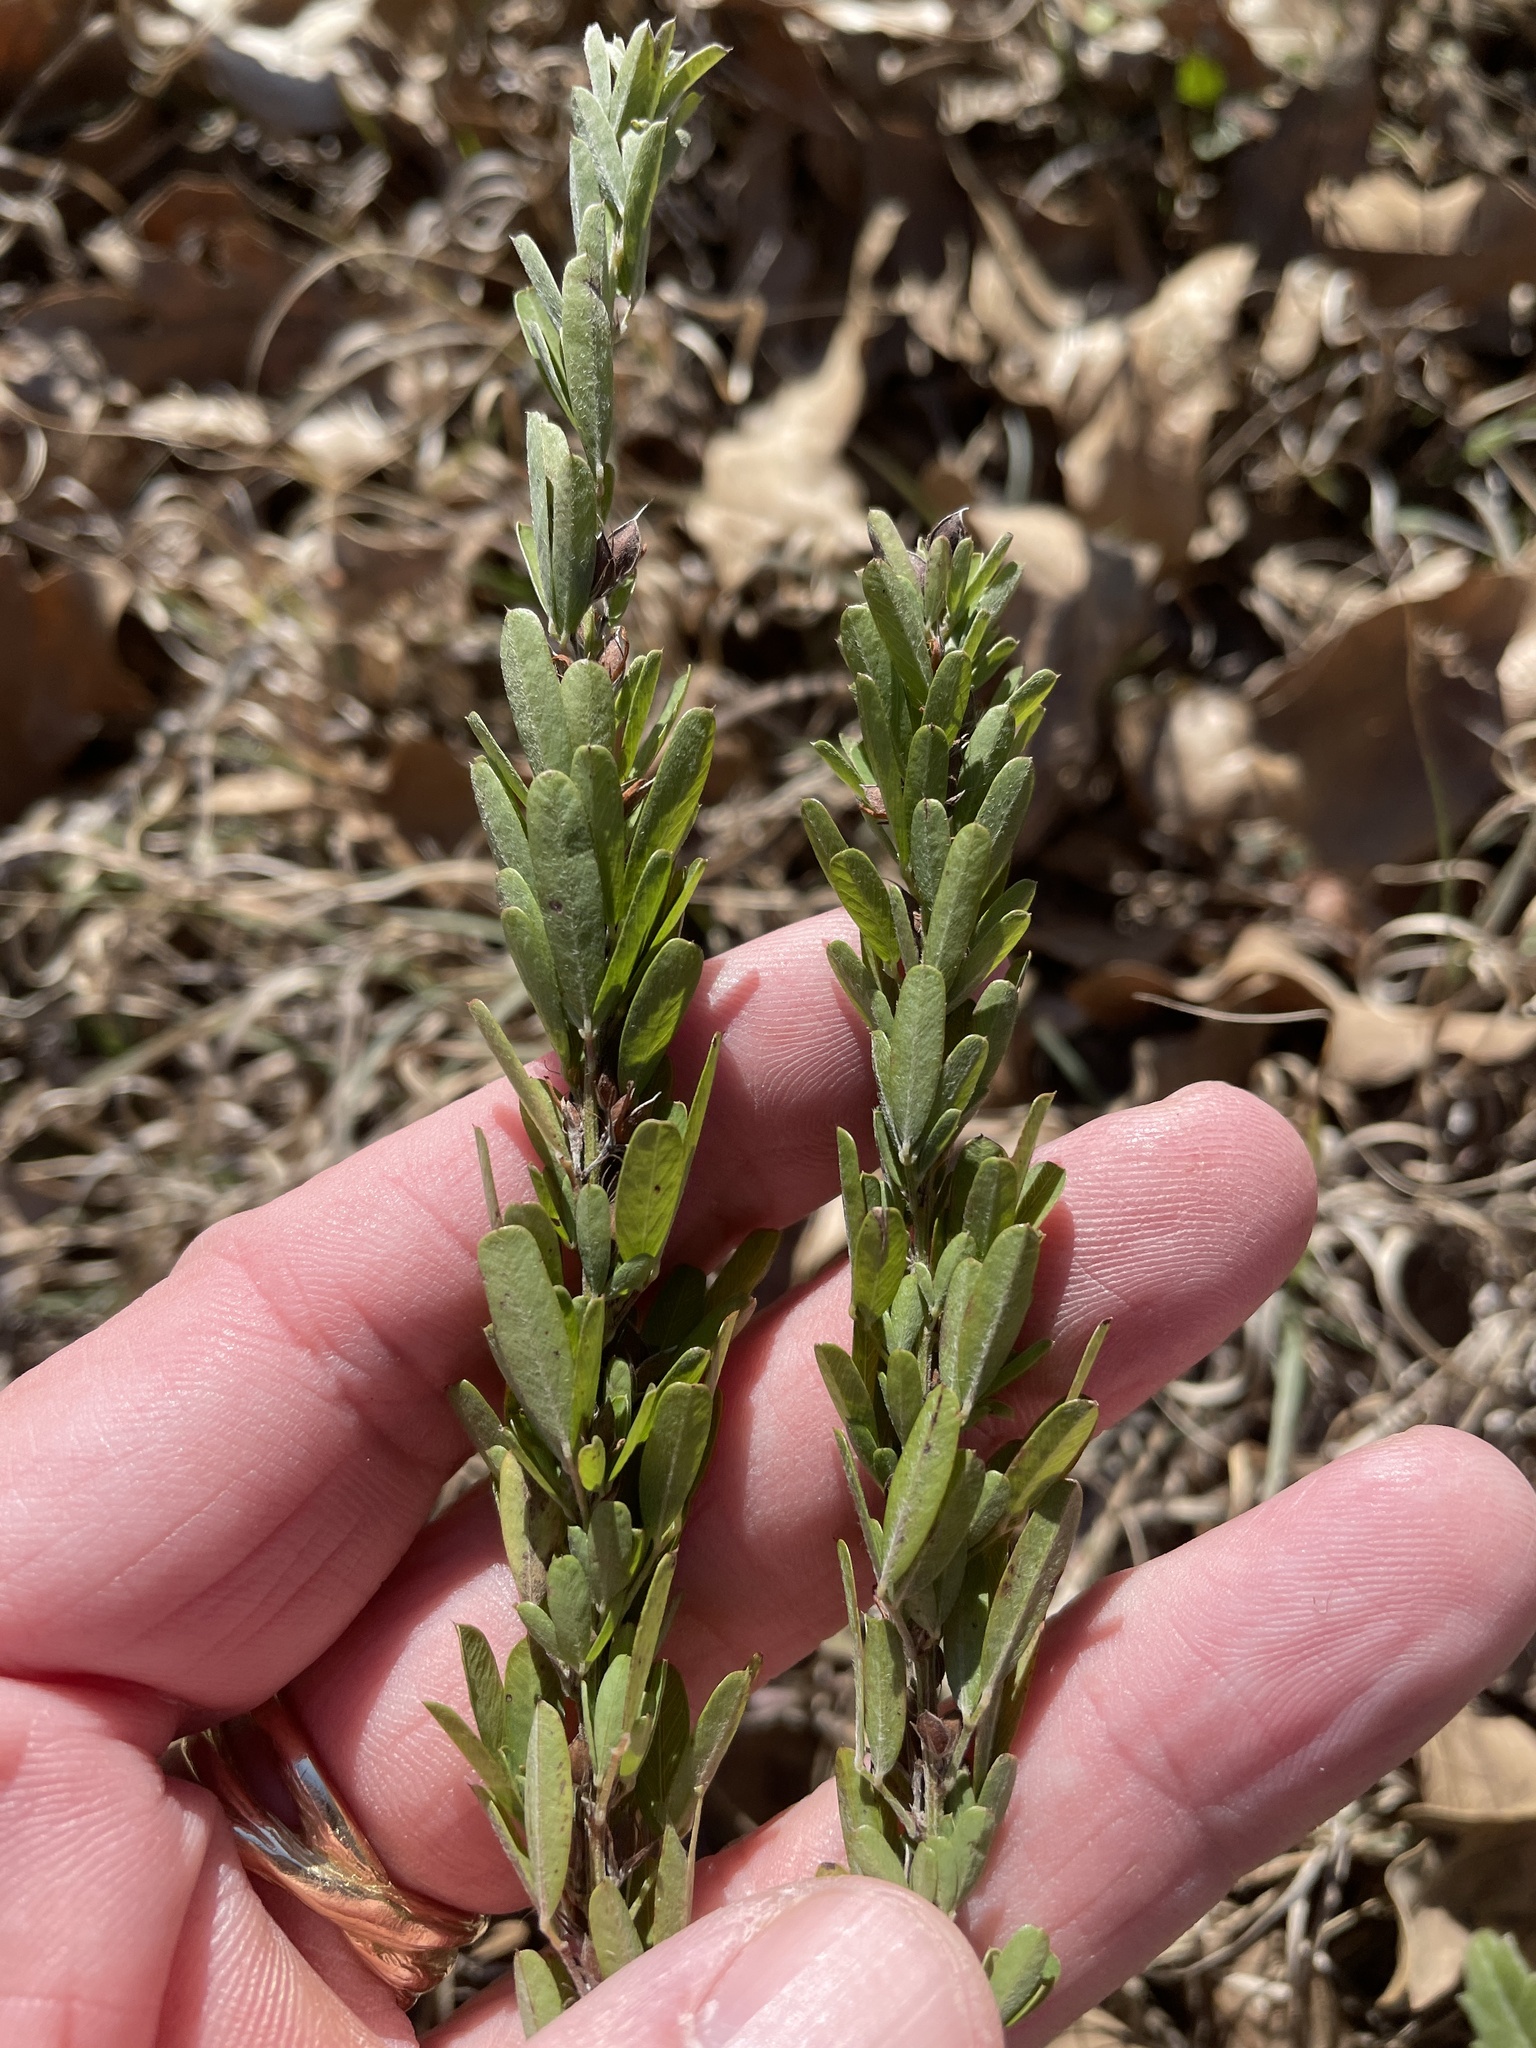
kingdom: Plantae
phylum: Tracheophyta
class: Magnoliopsida
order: Fabales
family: Fabaceae
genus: Lespedeza
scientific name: Lespedeza cuneata
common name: Chinese bush-clover
